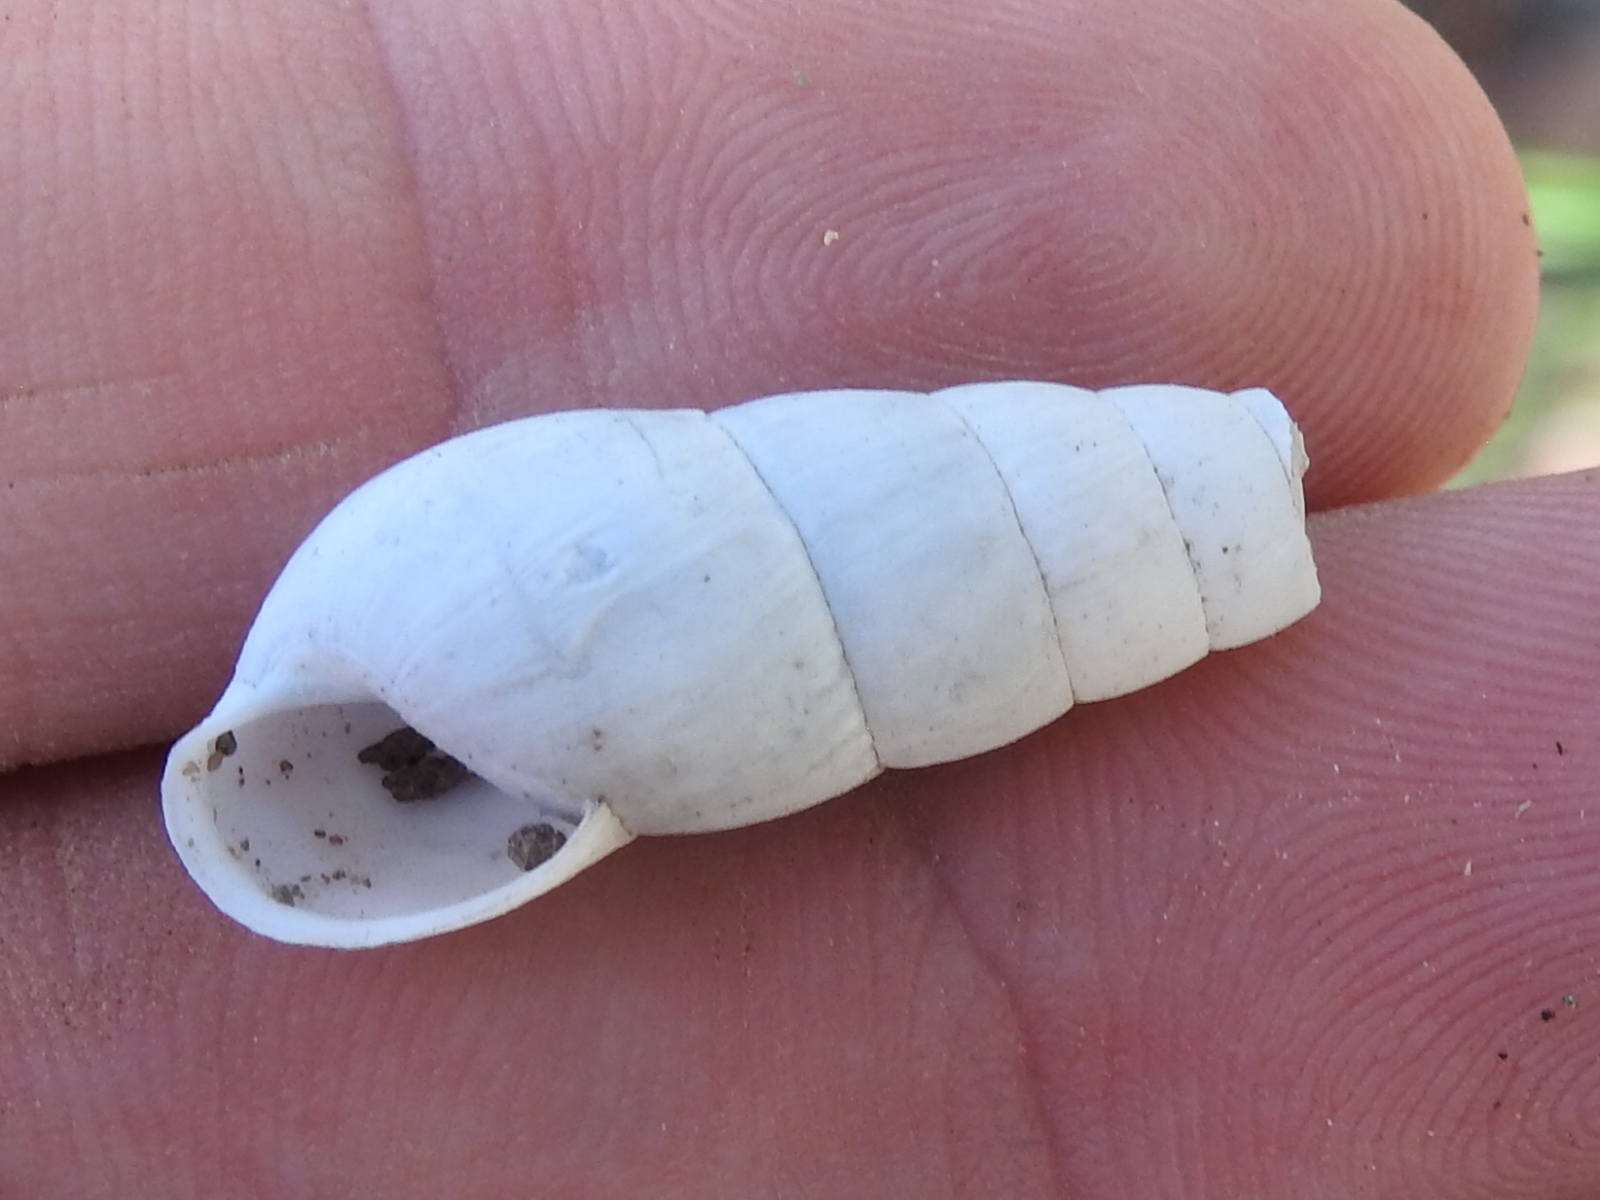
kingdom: Animalia
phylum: Mollusca
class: Gastropoda
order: Stylommatophora
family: Achatinidae
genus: Rumina
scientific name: Rumina decollata
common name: Decollate snail
